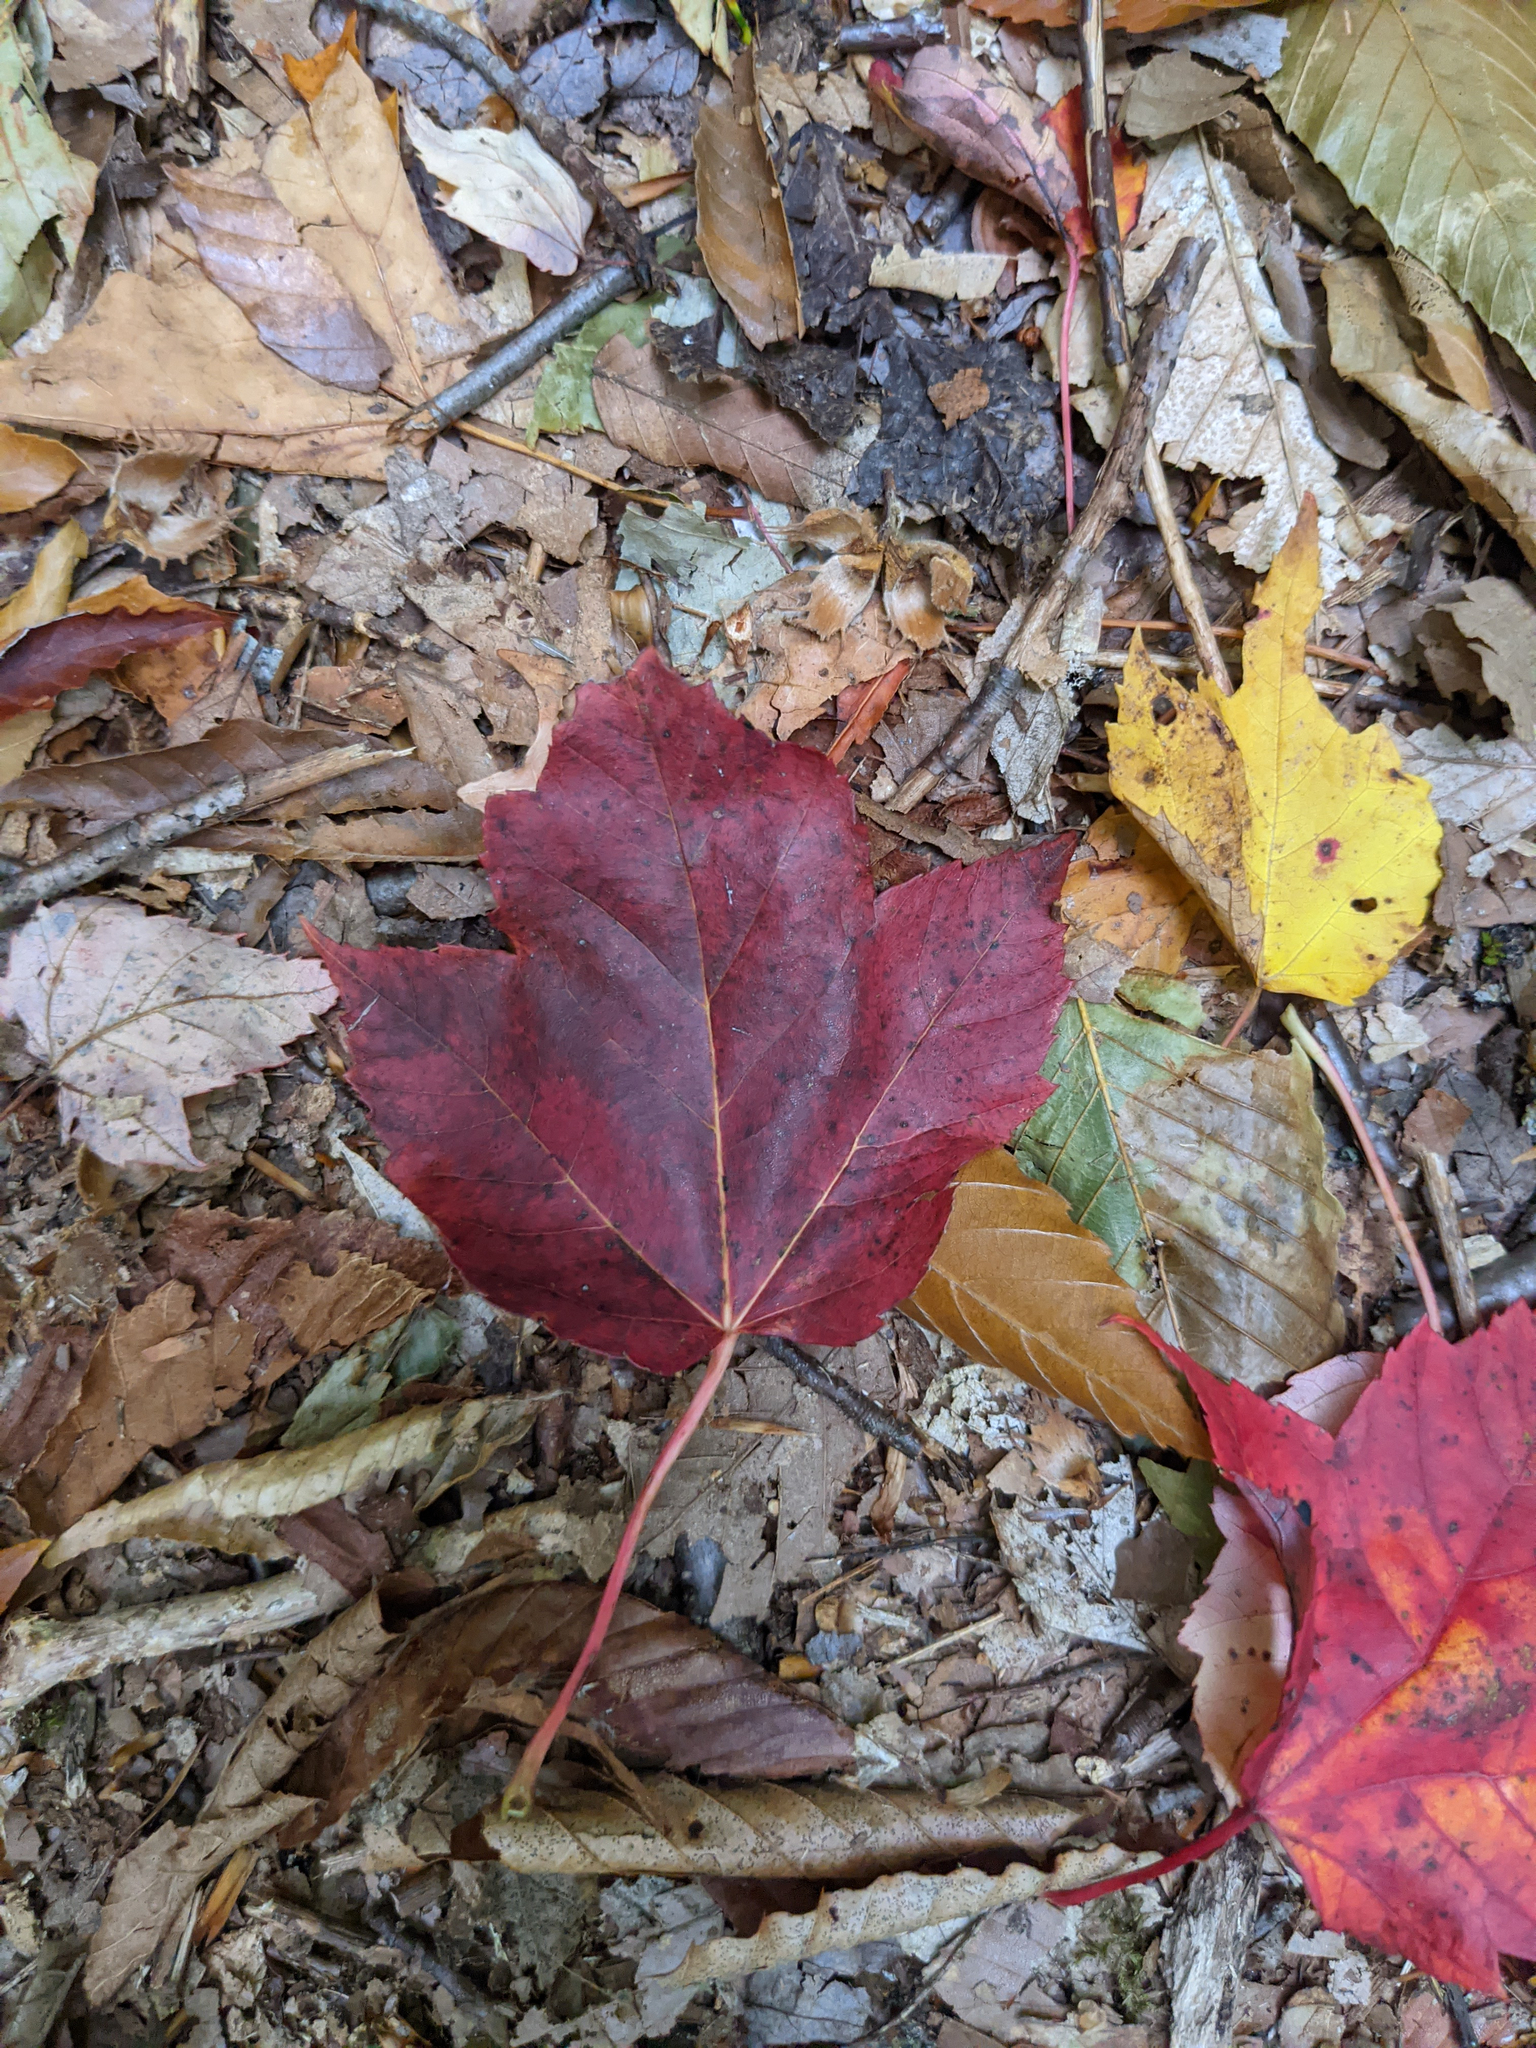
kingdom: Plantae
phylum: Tracheophyta
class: Magnoliopsida
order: Sapindales
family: Sapindaceae
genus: Acer
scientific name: Acer rubrum
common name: Red maple
